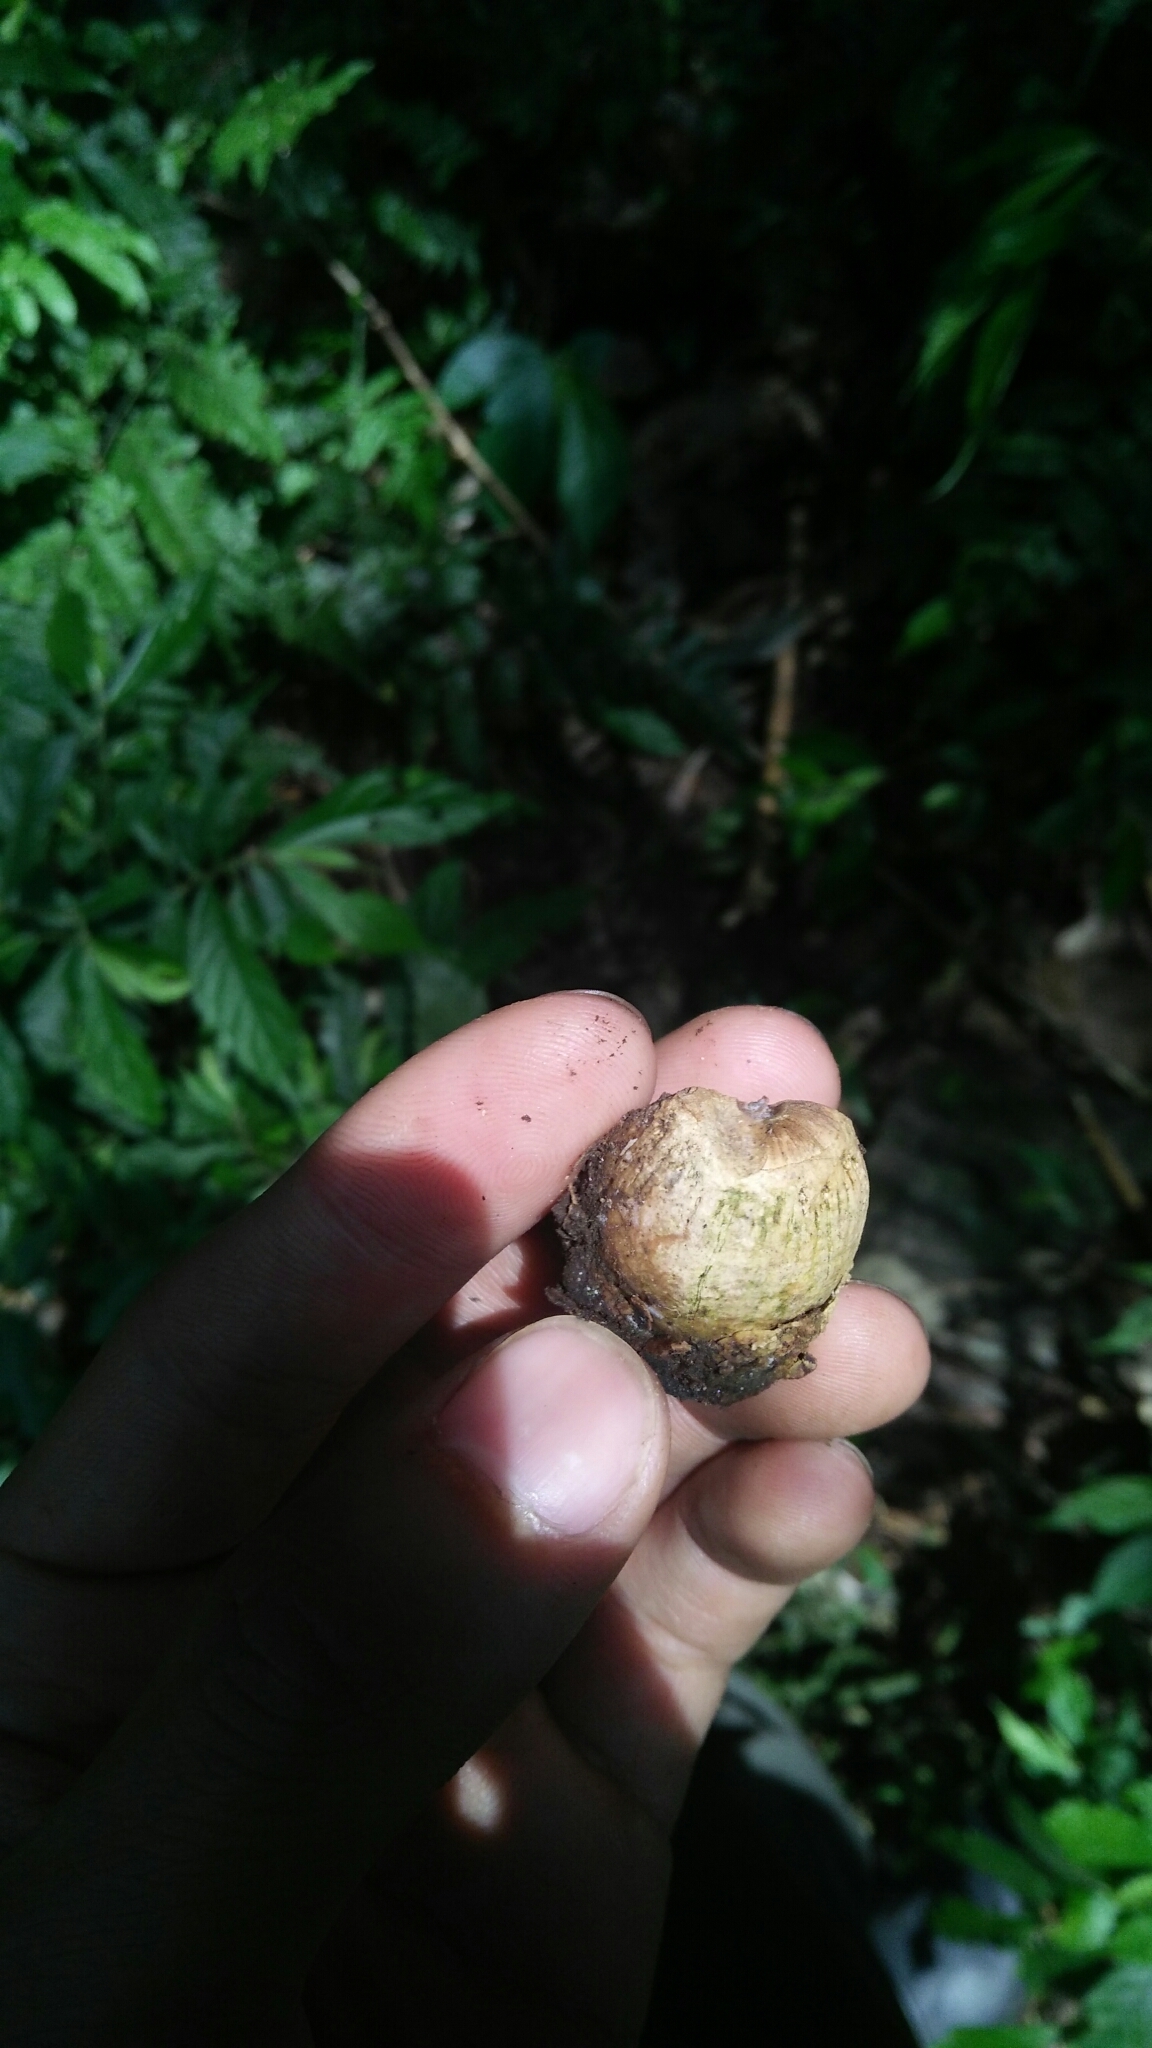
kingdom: Plantae
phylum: Tracheophyta
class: Magnoliopsida
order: Fagales
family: Fagaceae
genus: Lithocarpus
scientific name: Lithocarpus lepidocarpus
